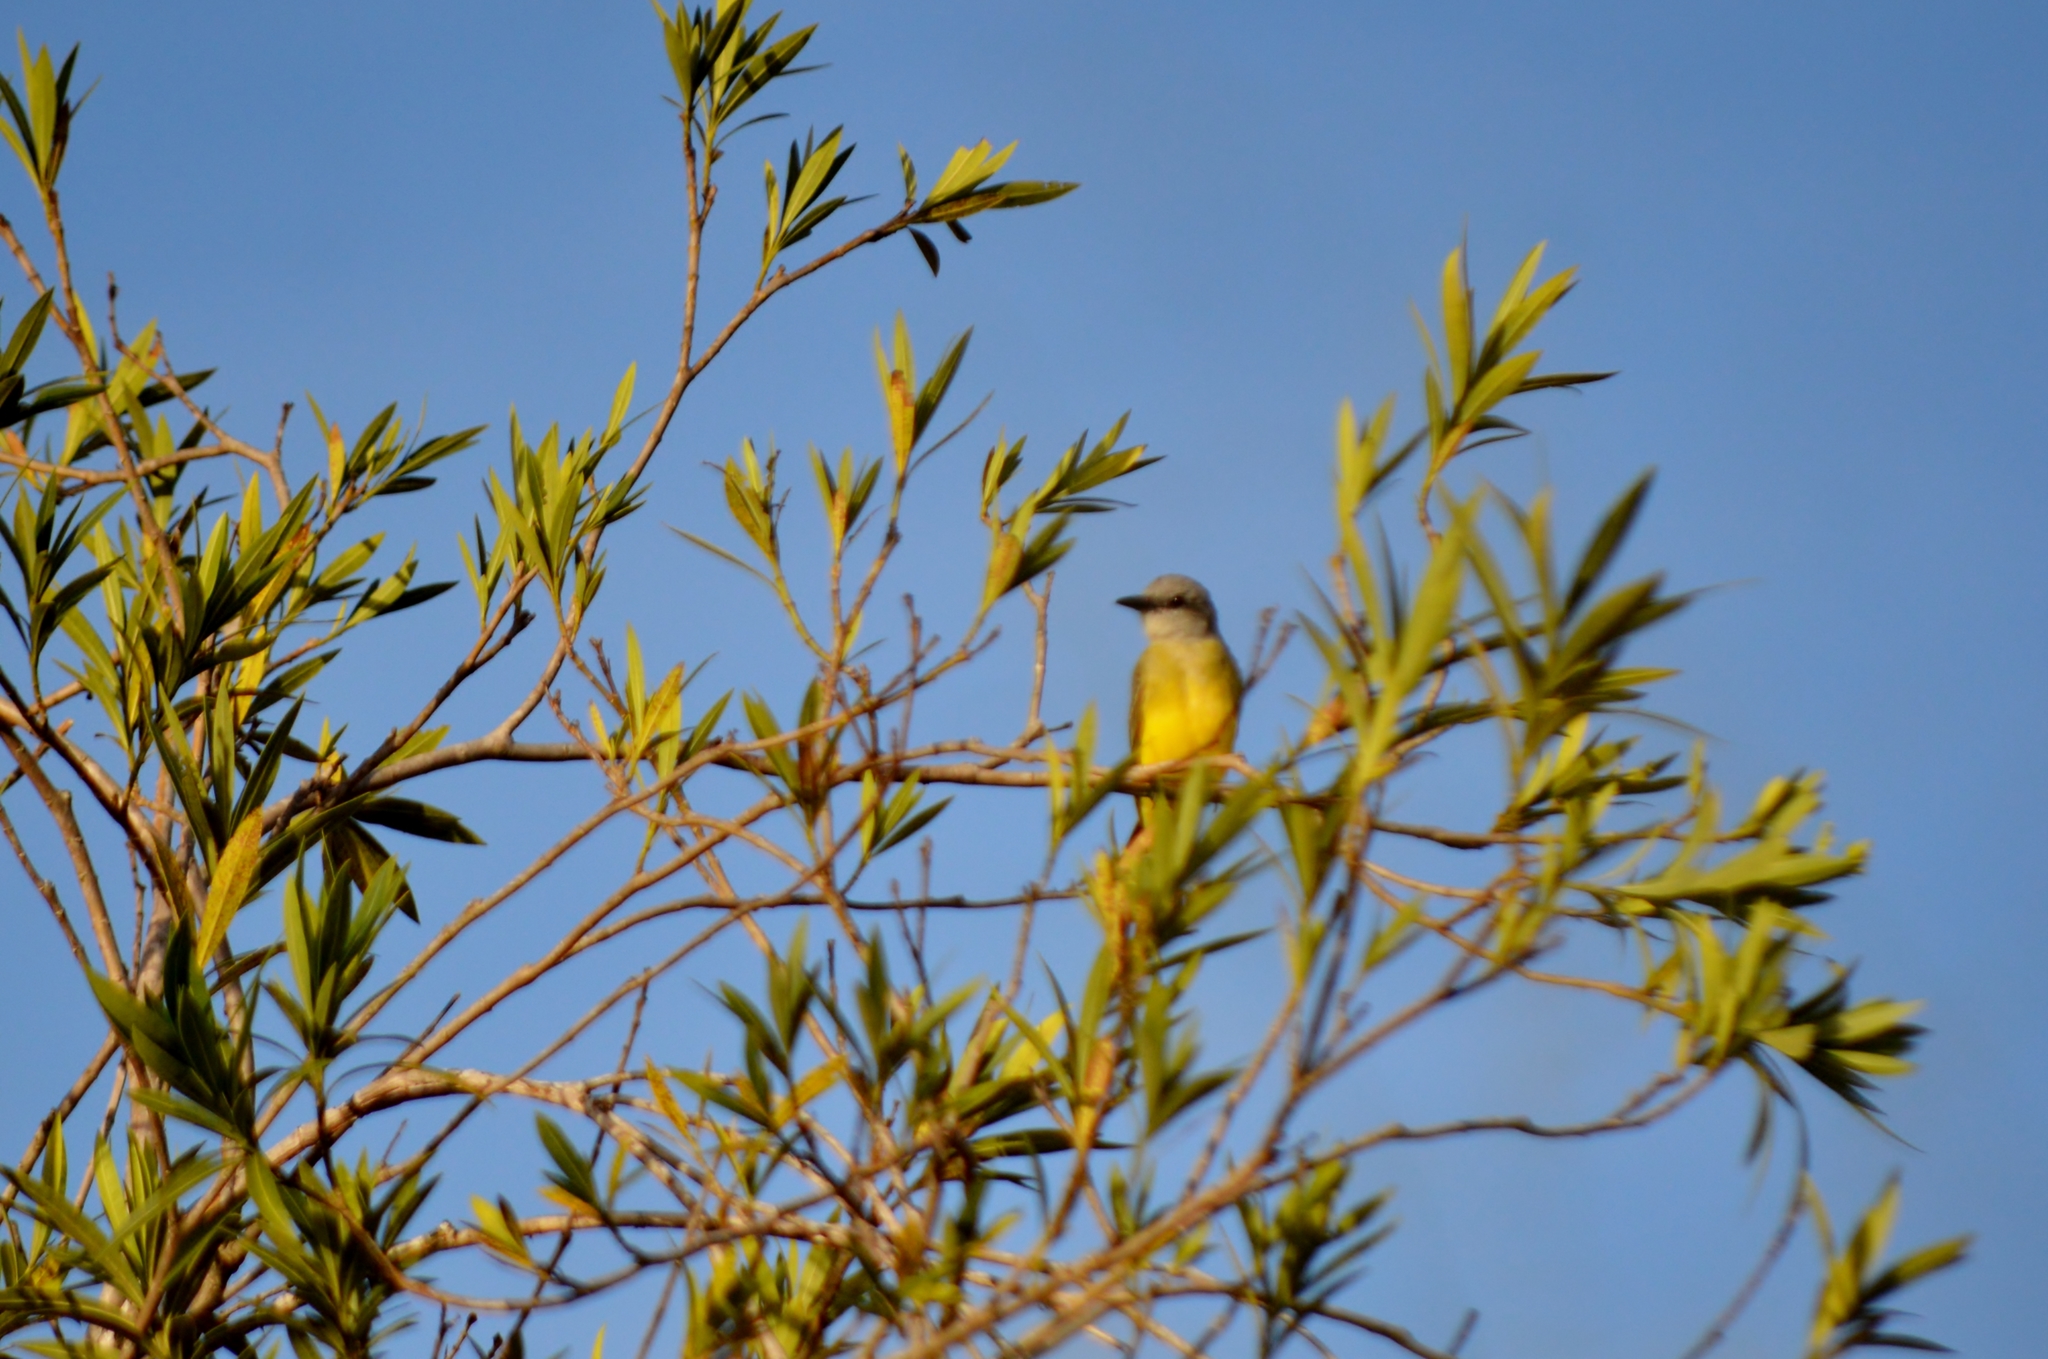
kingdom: Animalia
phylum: Chordata
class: Aves
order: Passeriformes
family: Tyrannidae
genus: Tyrannus
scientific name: Tyrannus melancholicus
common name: Tropical kingbird
